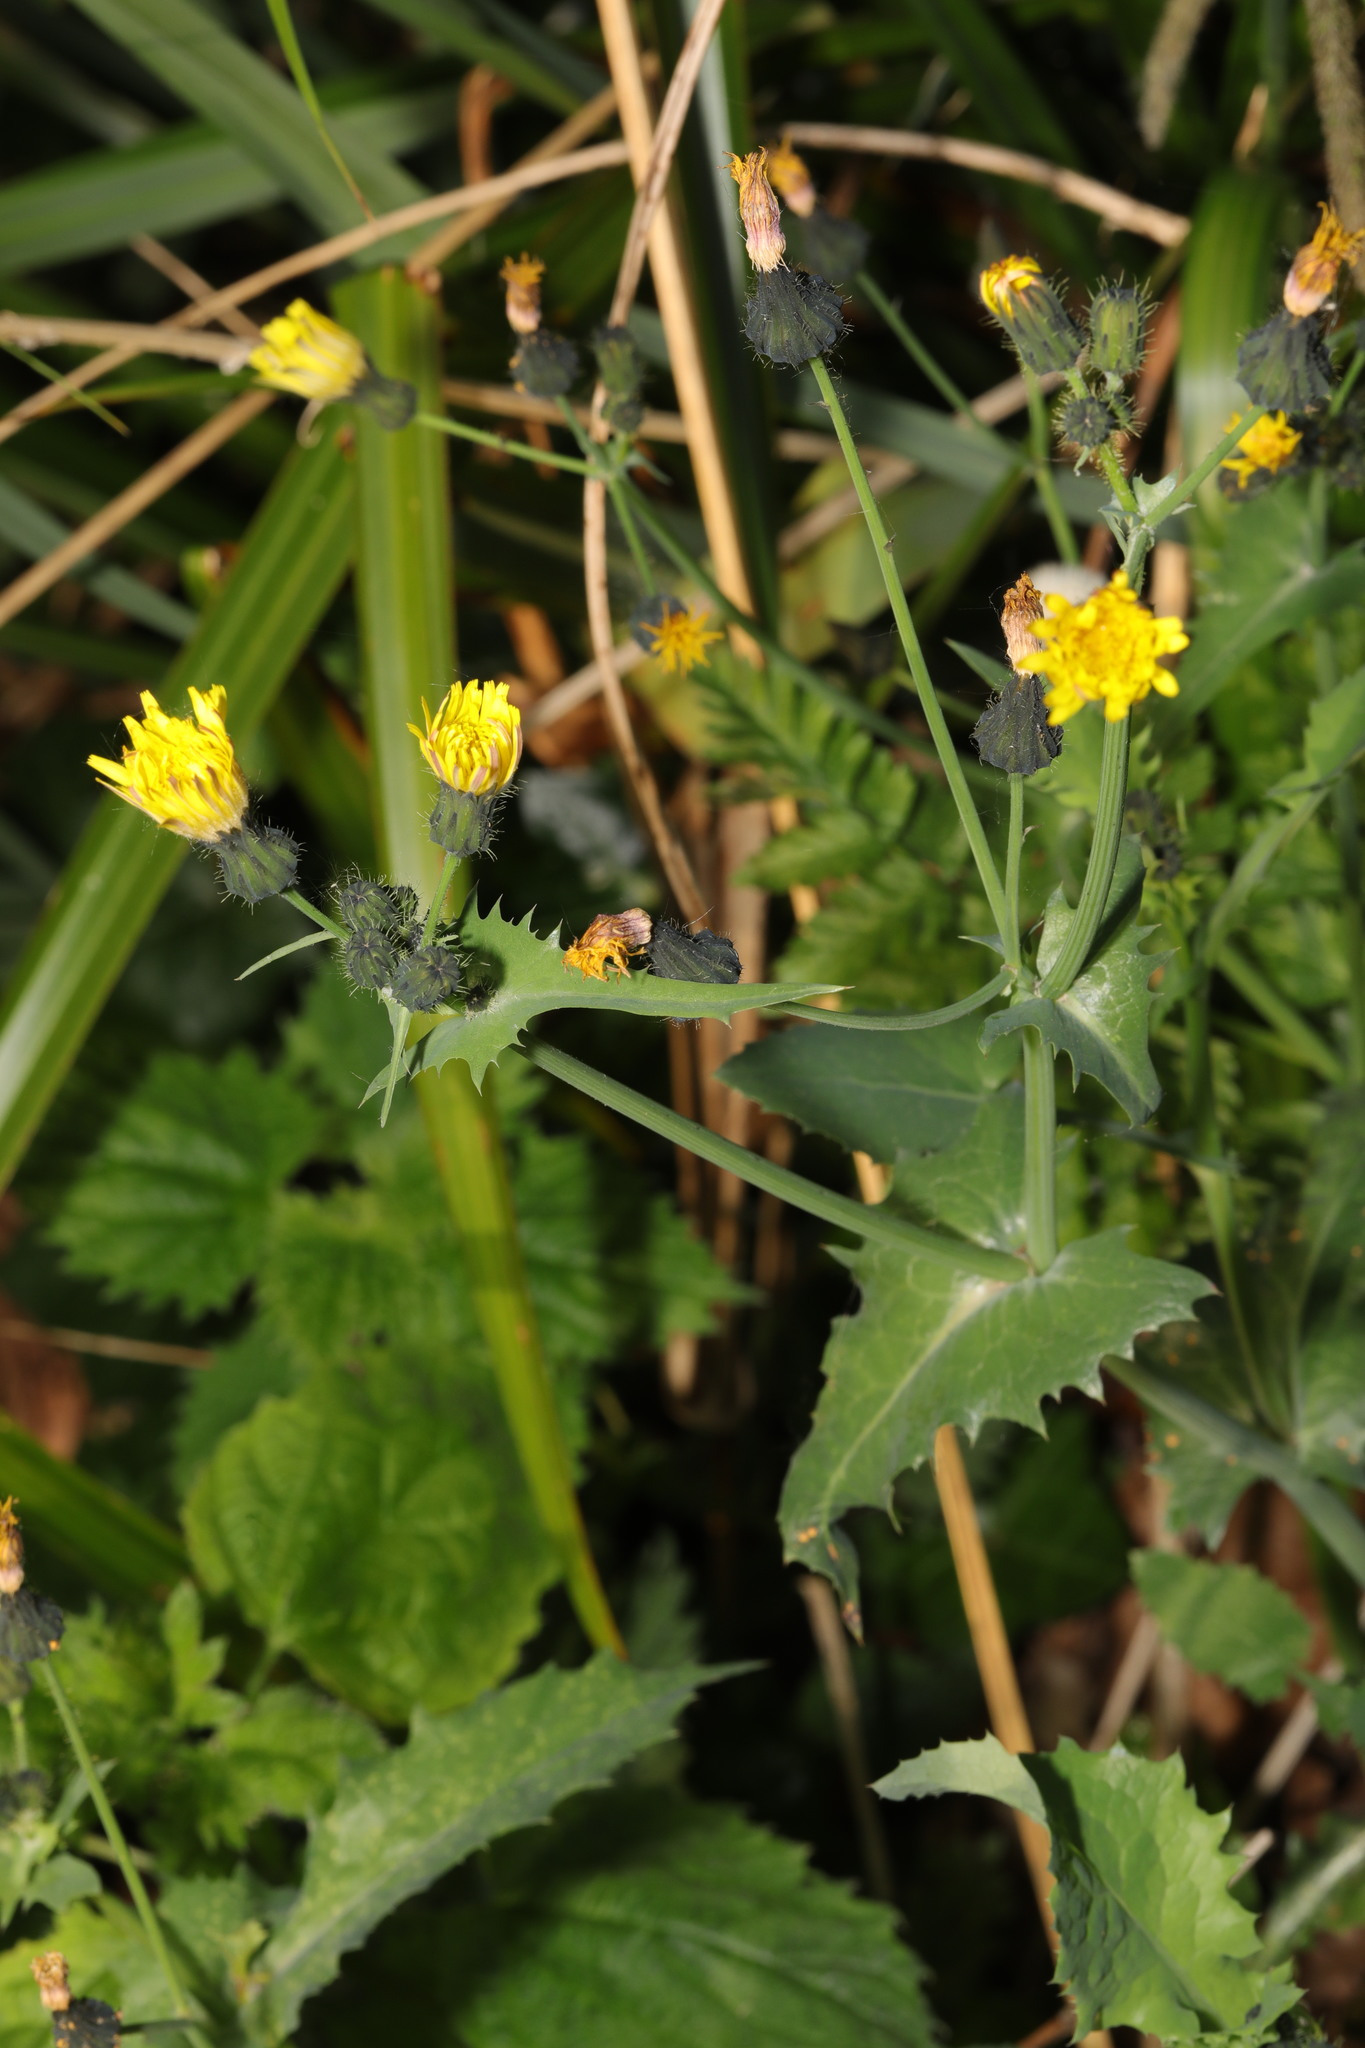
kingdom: Plantae
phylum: Tracheophyta
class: Magnoliopsida
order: Asterales
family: Asteraceae
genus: Sonchus
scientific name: Sonchus oleraceus
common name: Common sowthistle
